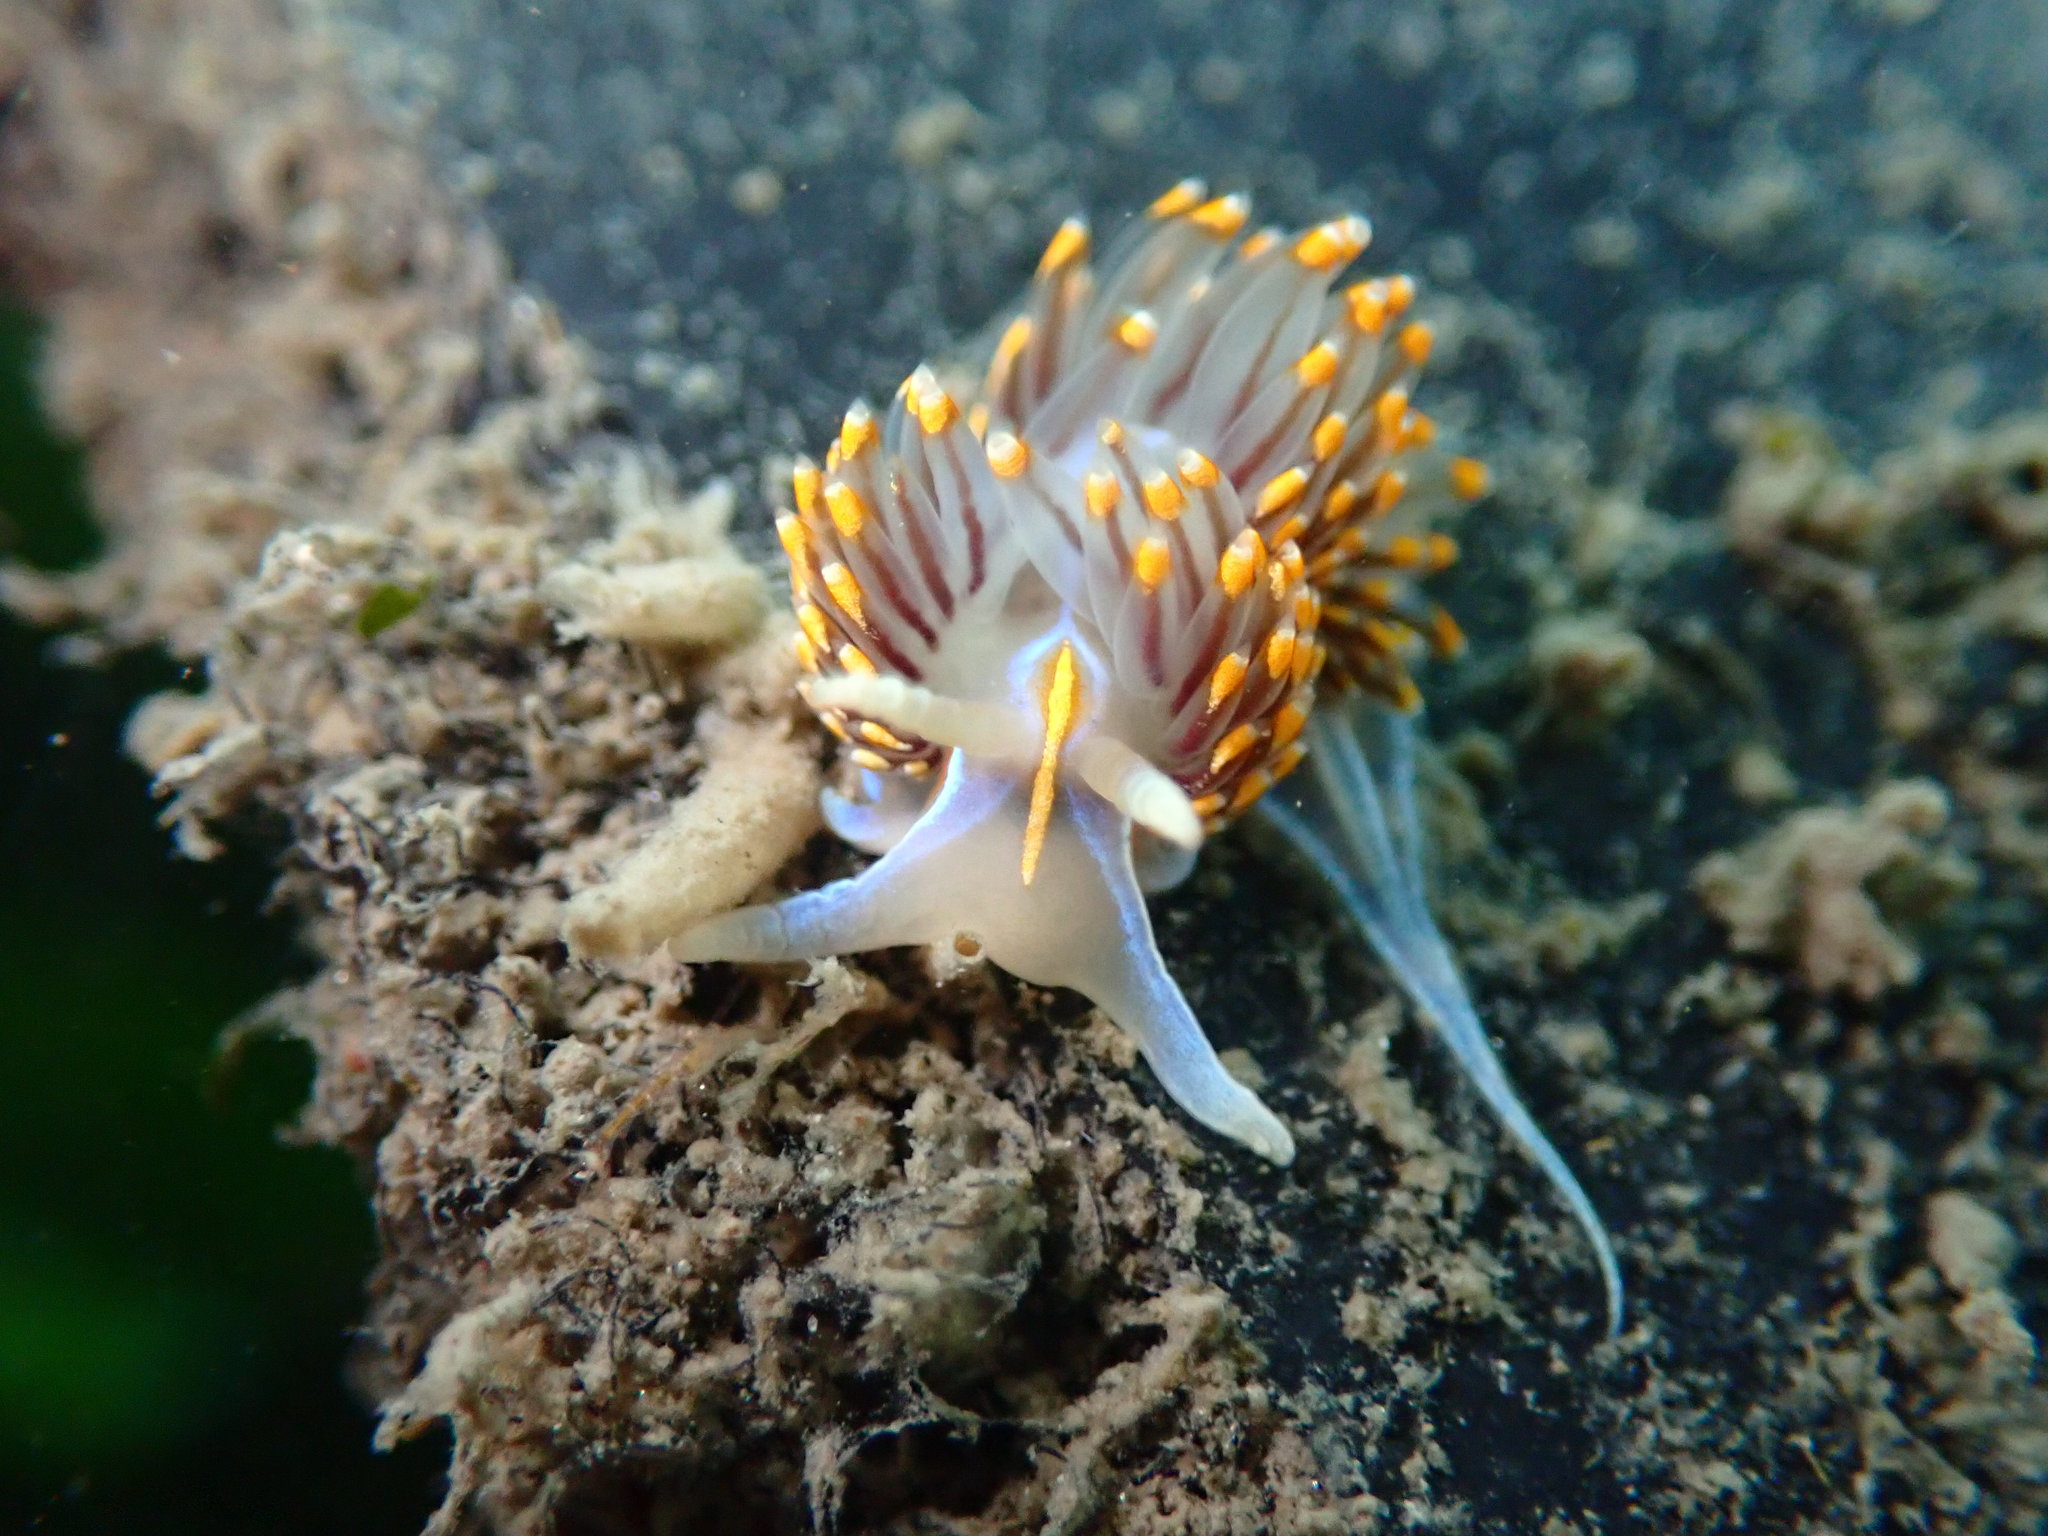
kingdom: Animalia
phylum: Mollusca
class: Gastropoda
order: Nudibranchia
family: Myrrhinidae
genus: Hermissenda
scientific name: Hermissenda opalescens
